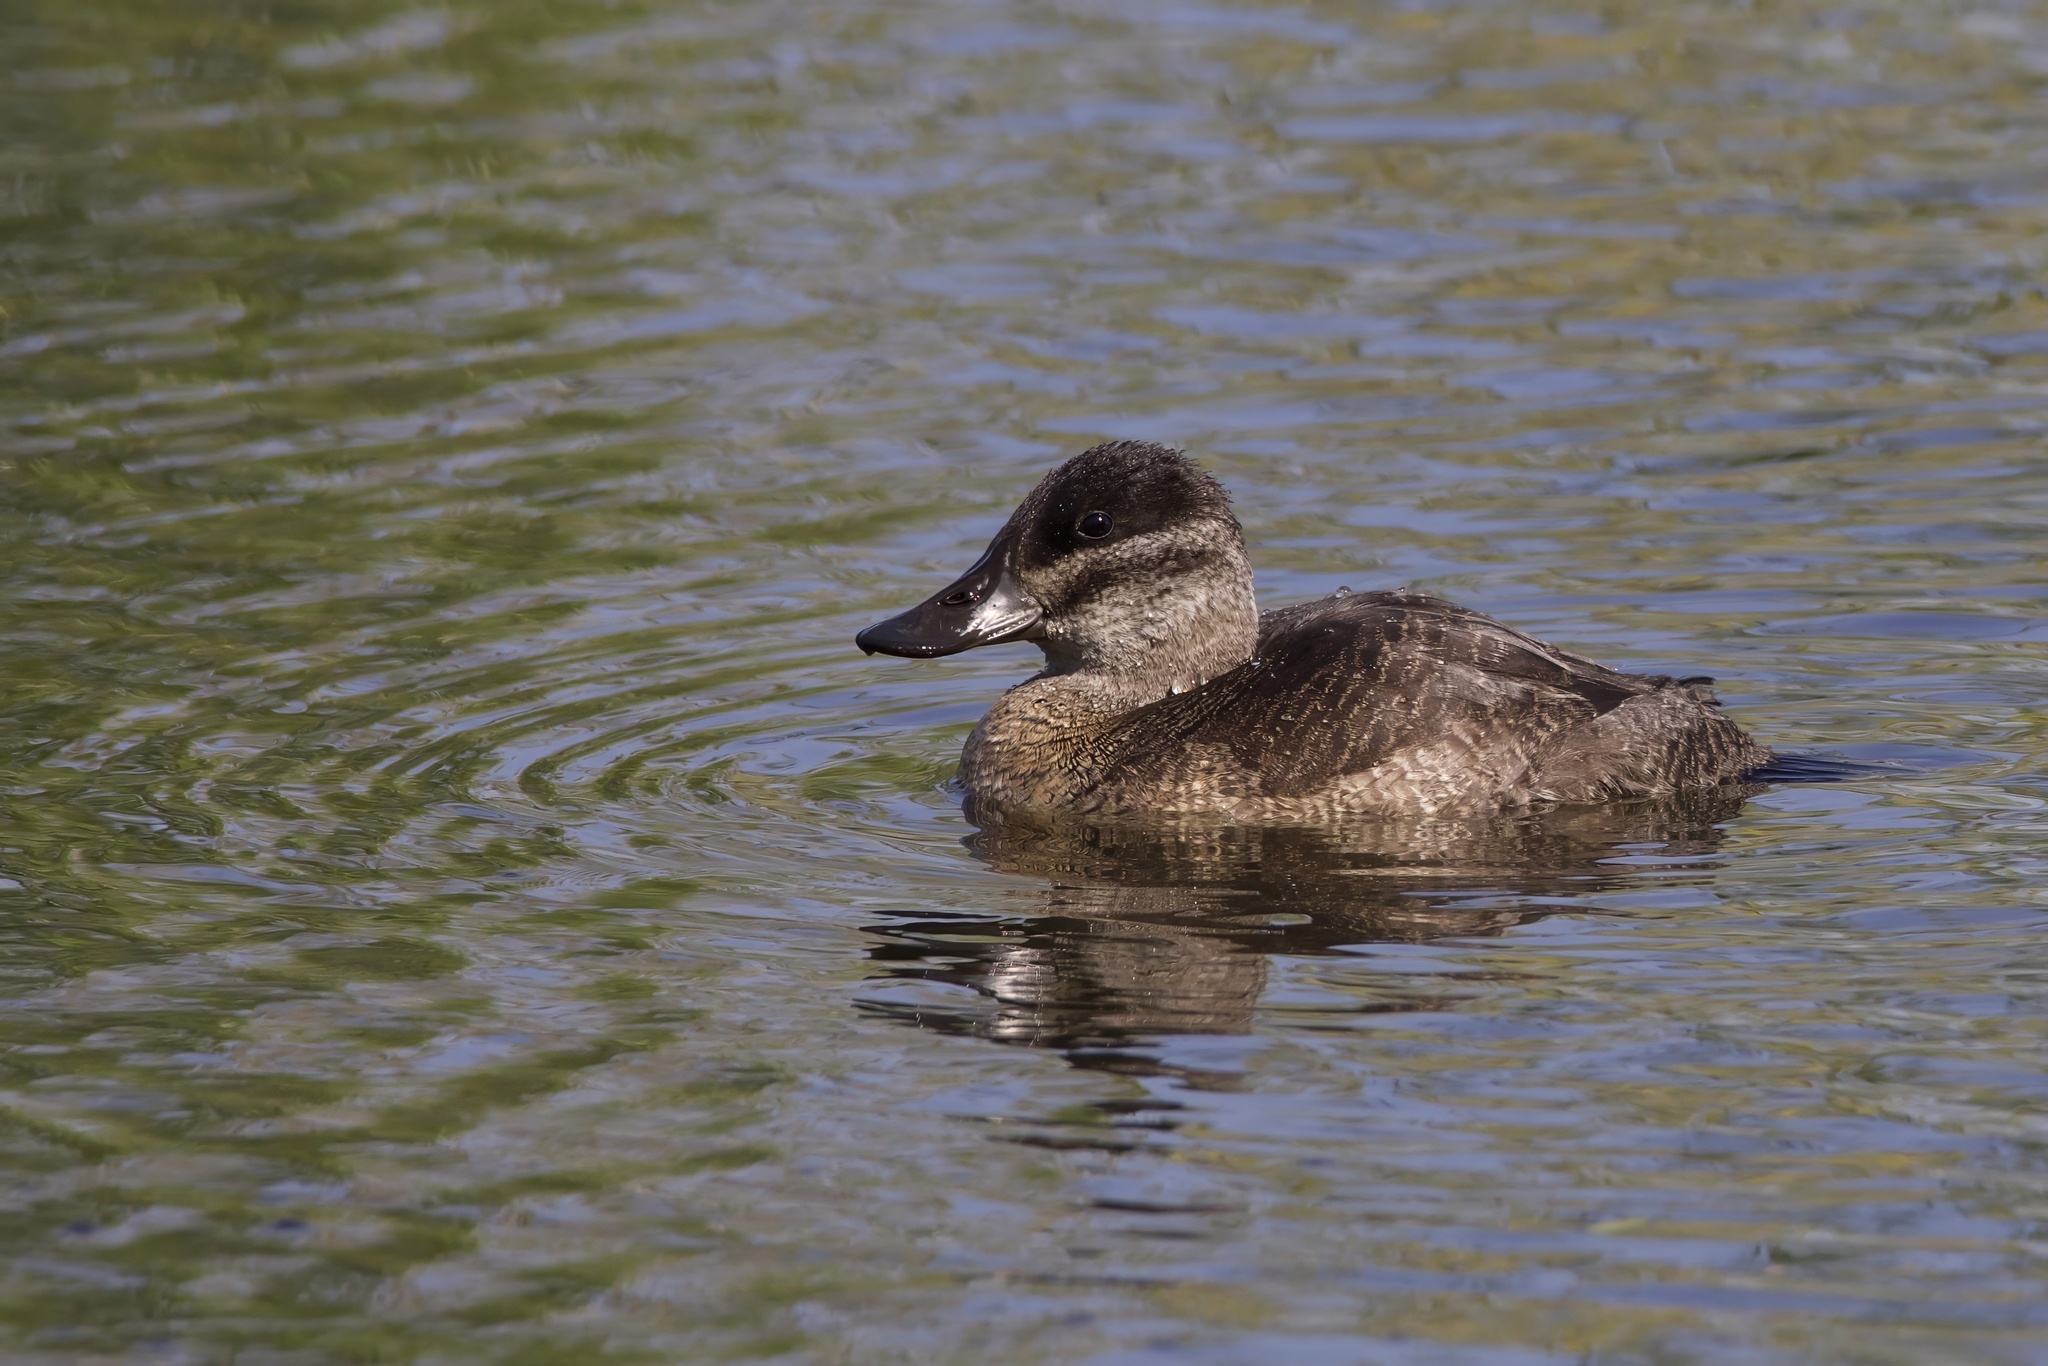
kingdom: Animalia
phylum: Chordata
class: Aves
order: Anseriformes
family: Anatidae
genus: Oxyura
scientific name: Oxyura jamaicensis
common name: Ruddy duck
